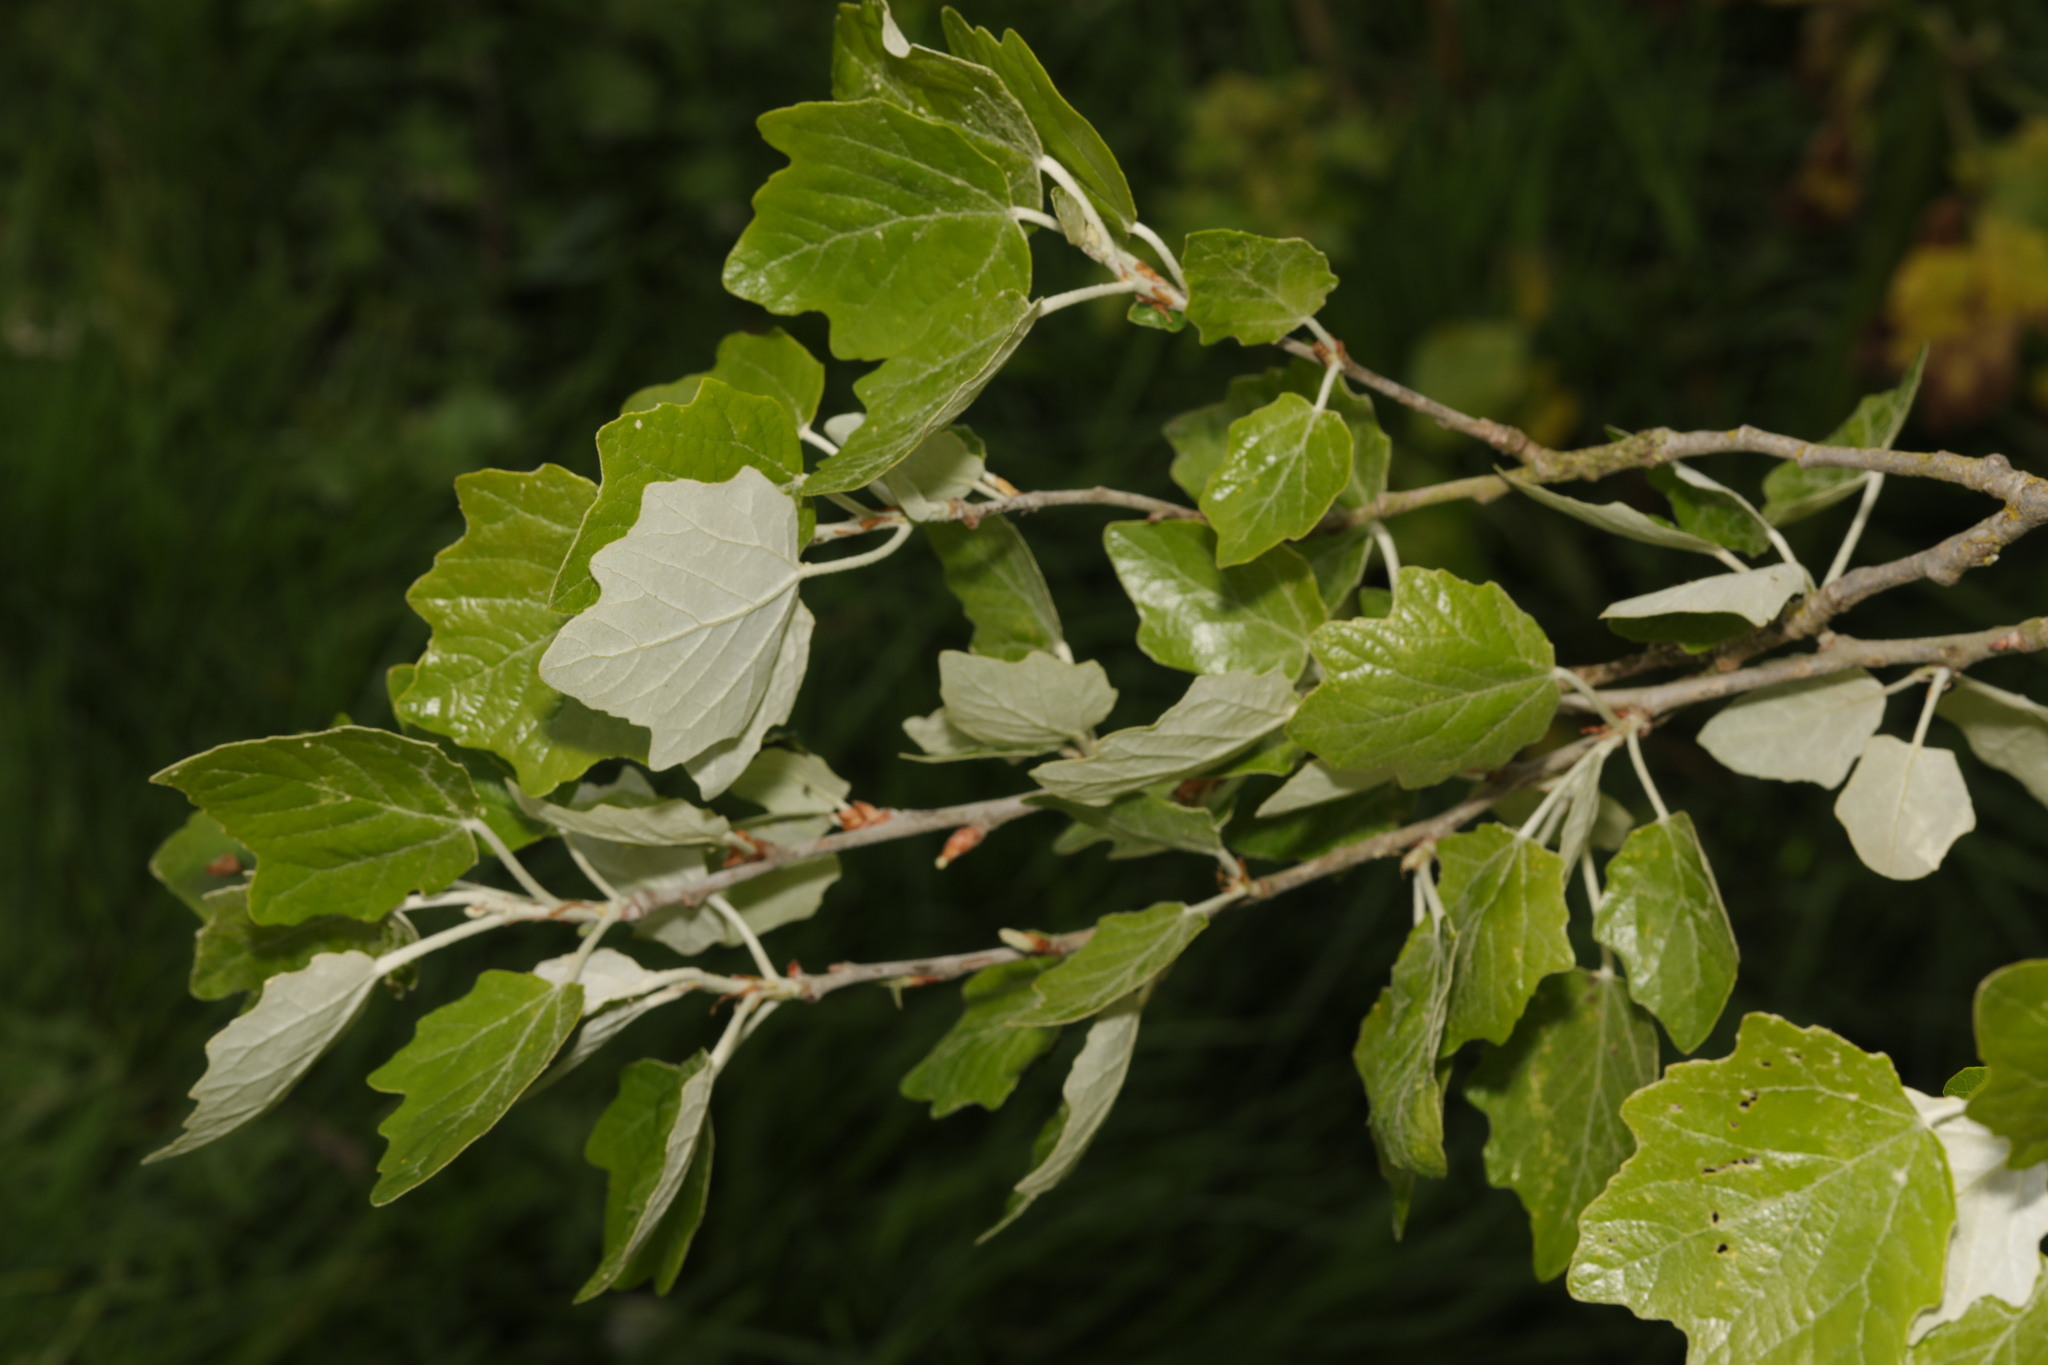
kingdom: Plantae
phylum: Tracheophyta
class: Magnoliopsida
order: Malpighiales
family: Salicaceae
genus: Populus
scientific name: Populus alba
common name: White poplar
